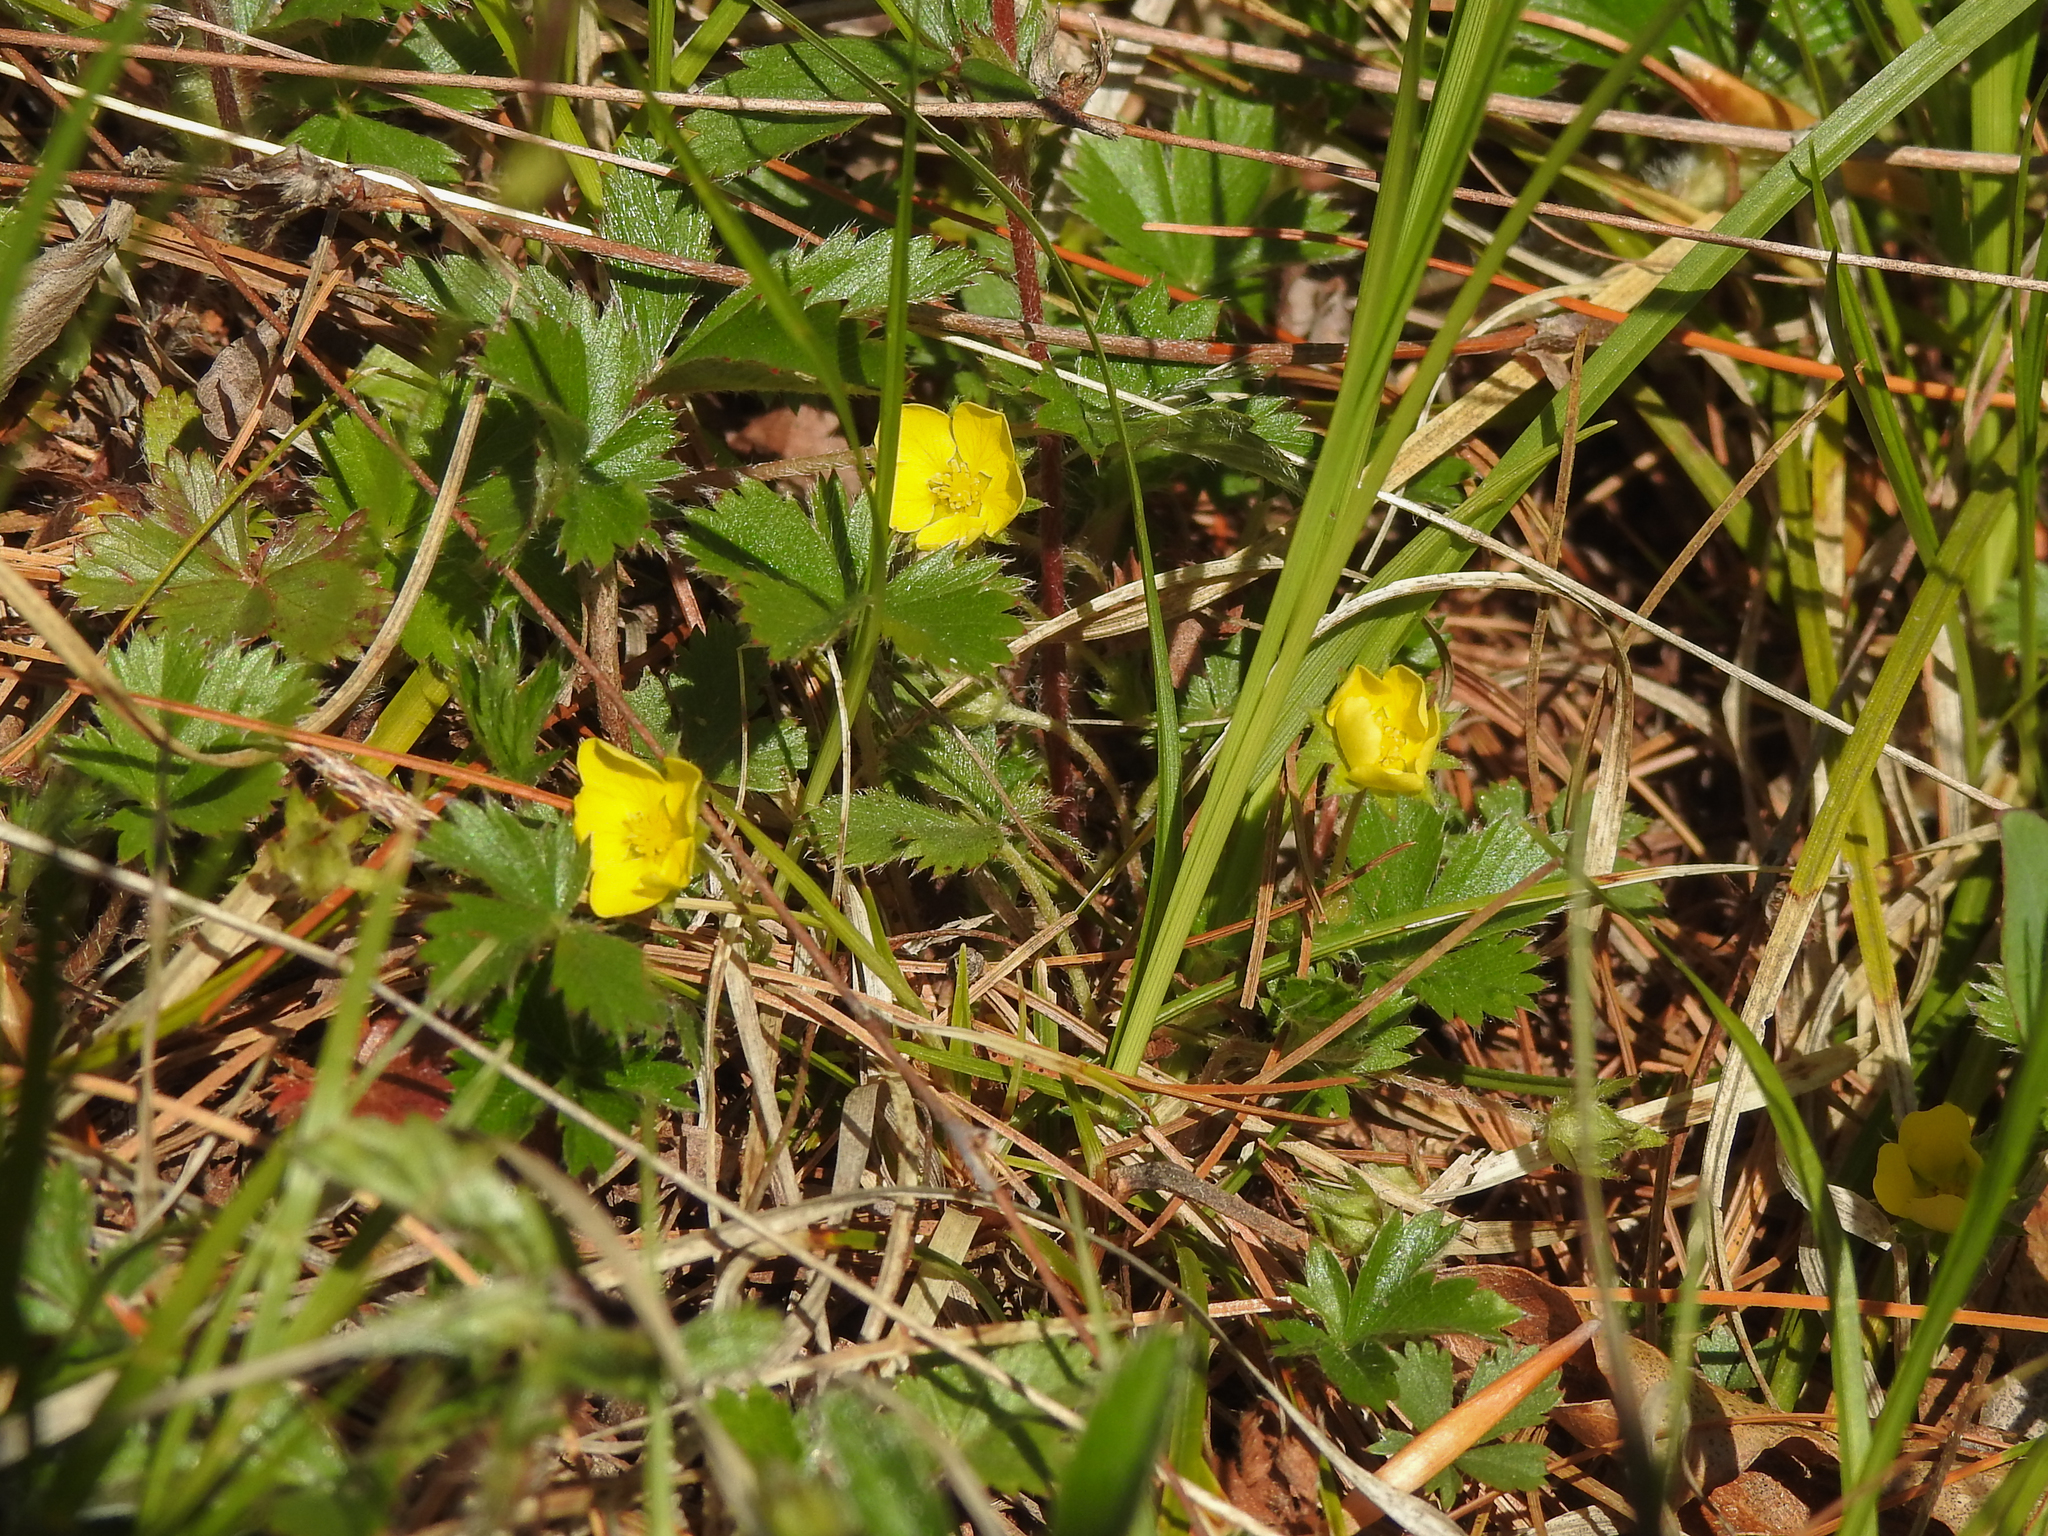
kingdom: Plantae
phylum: Tracheophyta
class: Magnoliopsida
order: Rosales
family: Rosaceae
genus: Potentilla
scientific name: Potentilla canadensis
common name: Canada cinquefoil
